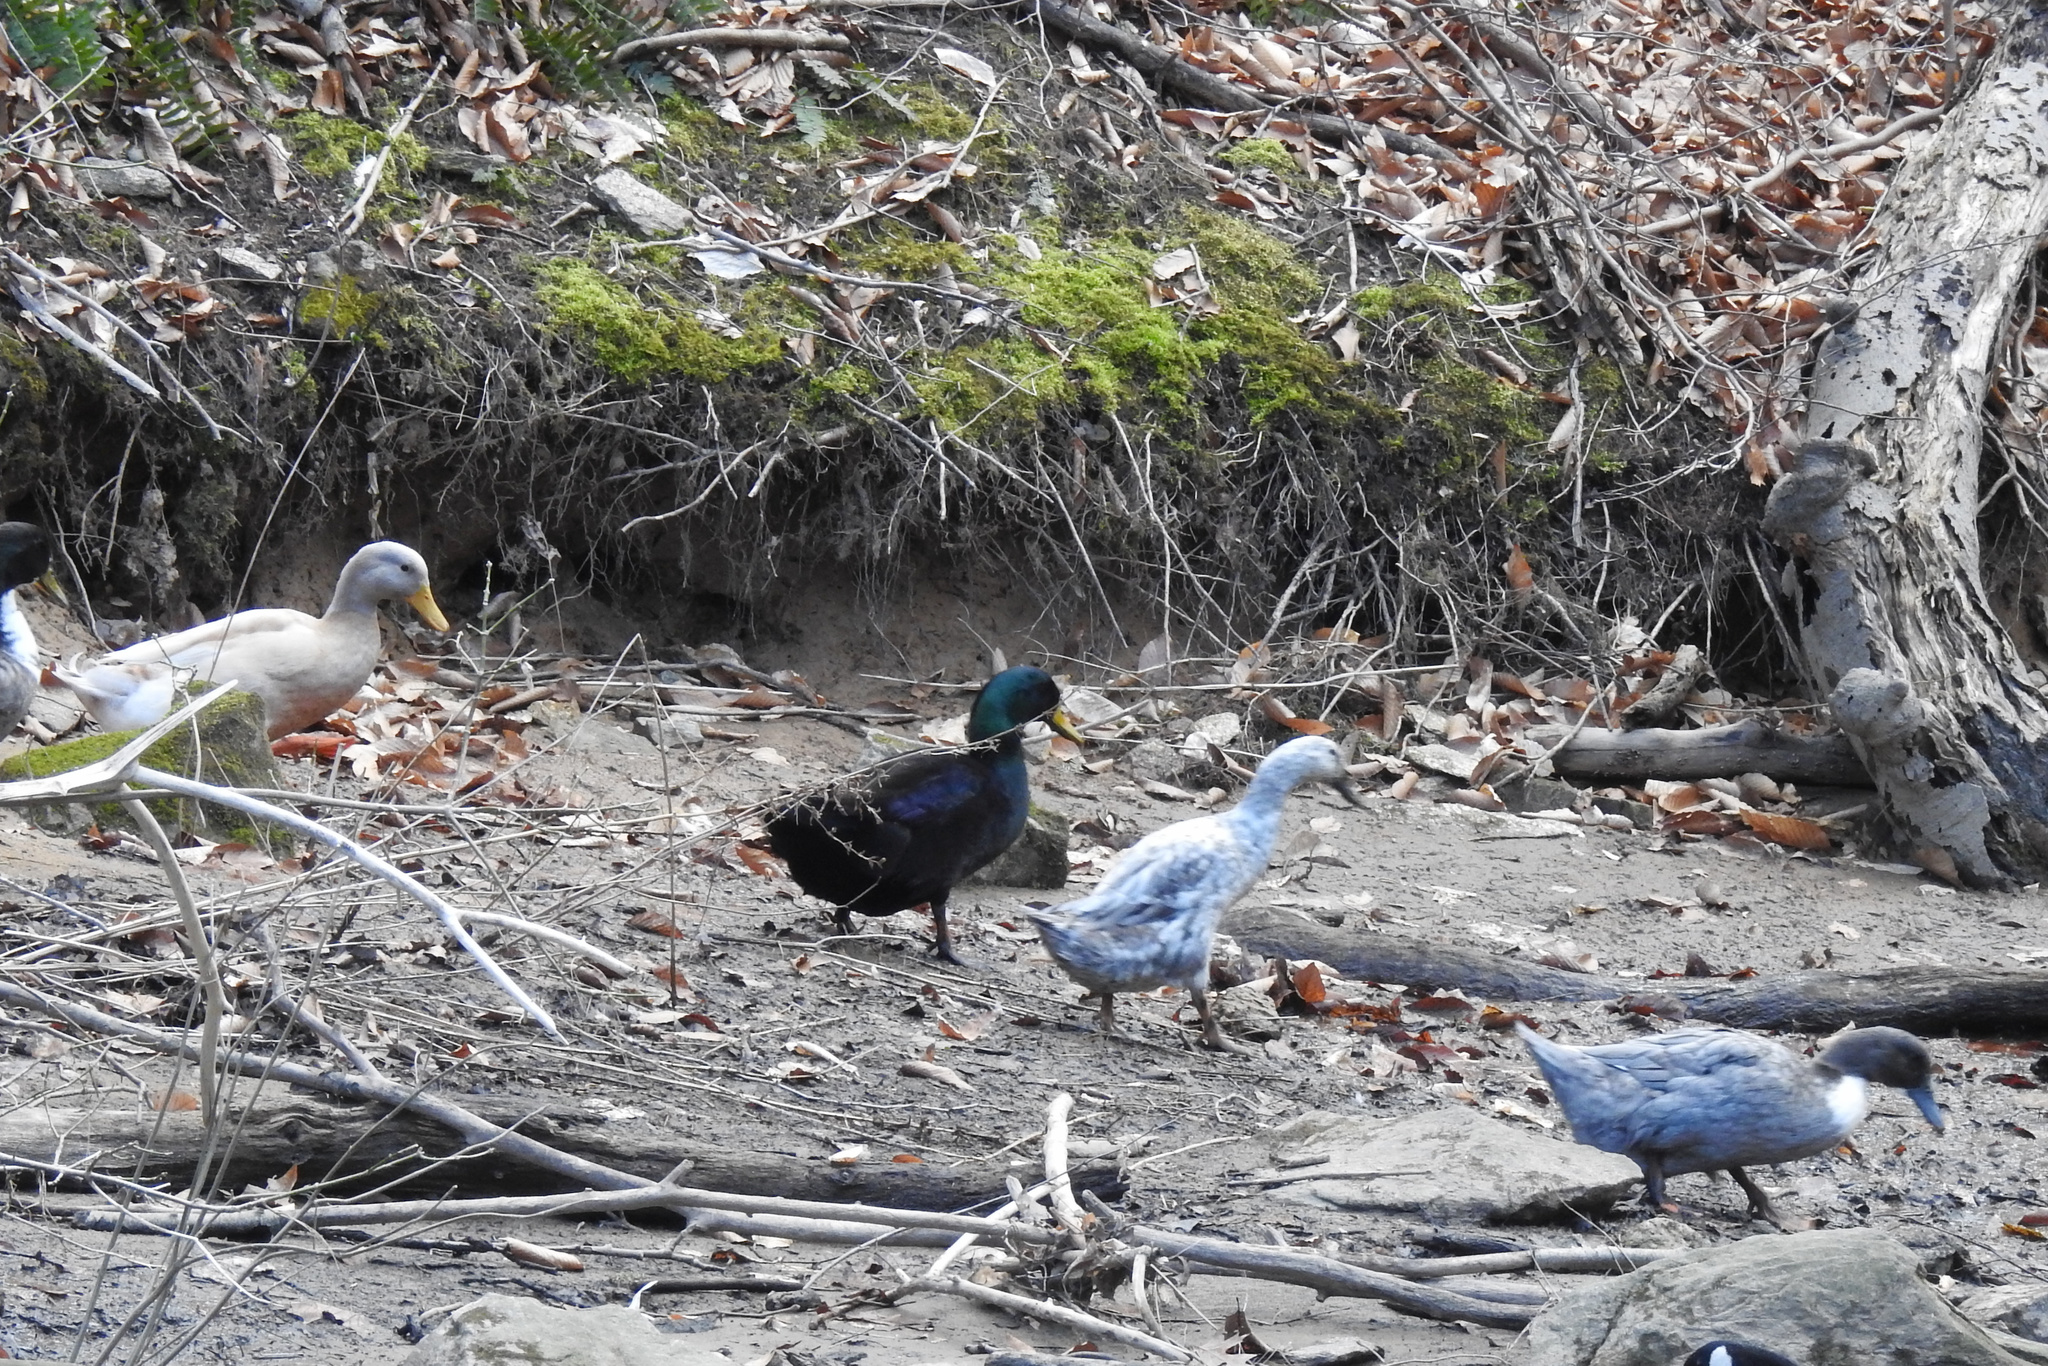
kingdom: Animalia
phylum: Chordata
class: Aves
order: Anseriformes
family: Anatidae
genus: Anas
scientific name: Anas platyrhynchos
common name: Mallard
